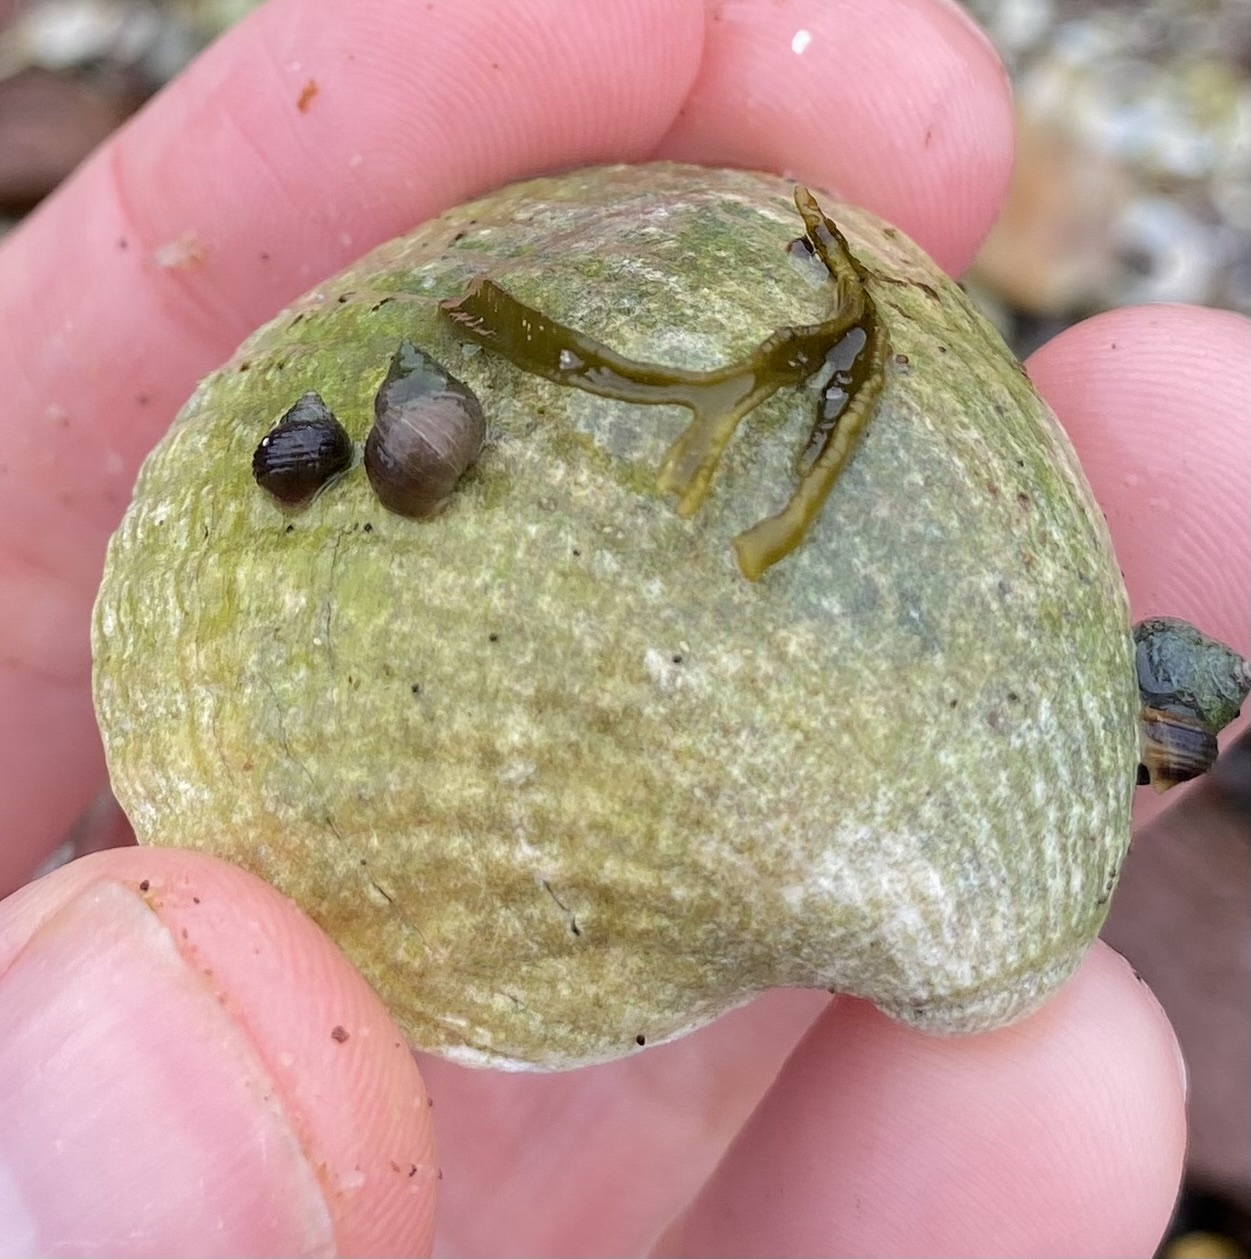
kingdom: Animalia
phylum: Mollusca
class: Bivalvia
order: Cardiida
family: Cardiidae
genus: Cerastoderma
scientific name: Cerastoderma edule
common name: Common cockle
